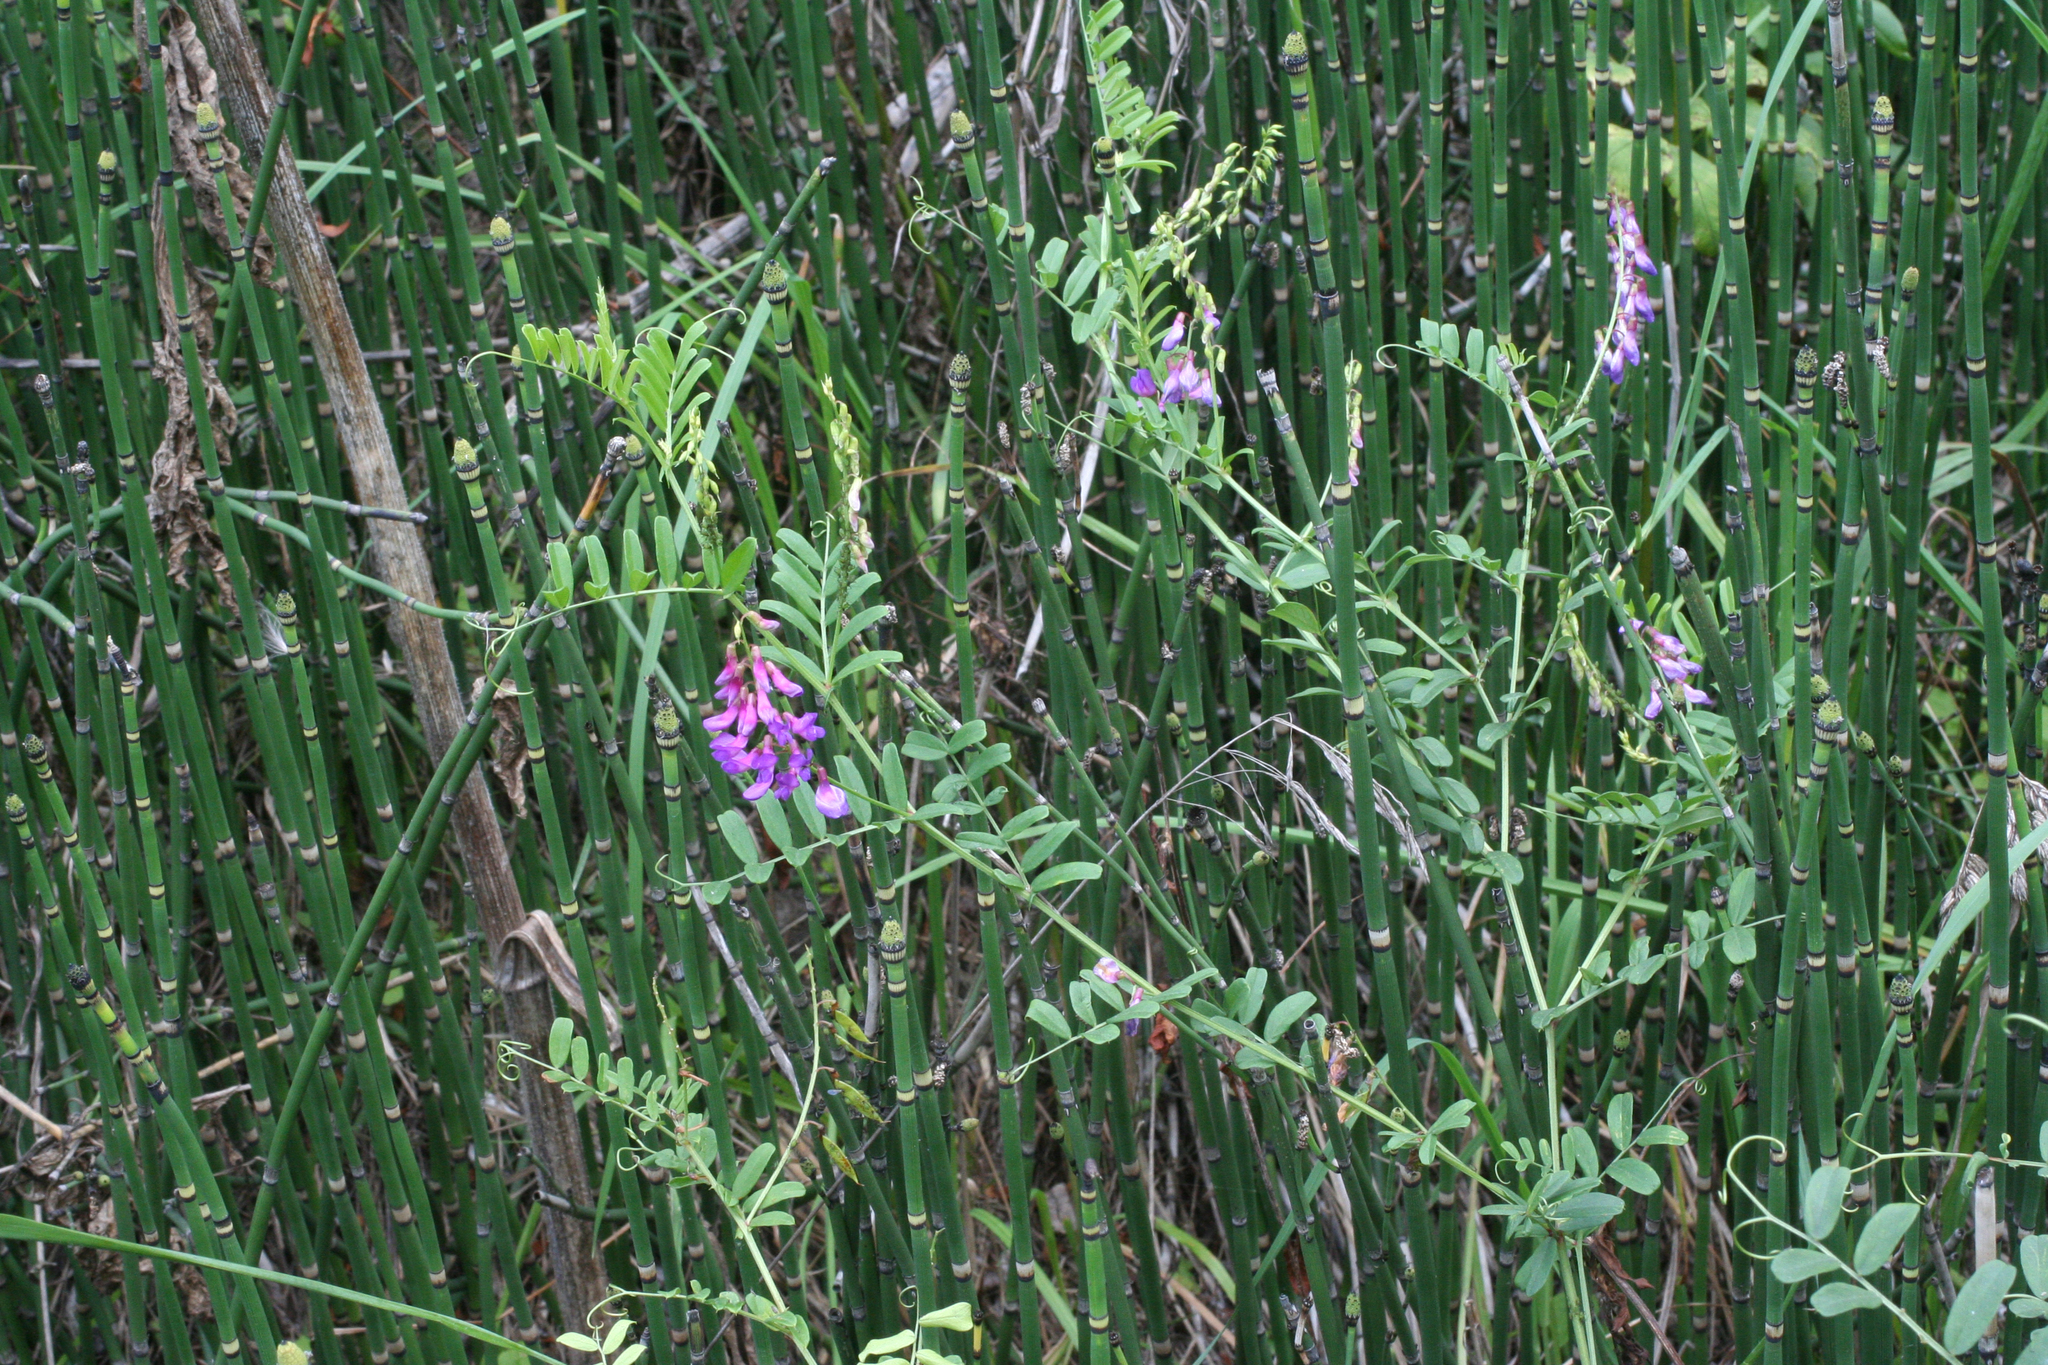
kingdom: Plantae
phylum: Tracheophyta
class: Magnoliopsida
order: Fabales
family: Fabaceae
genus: Vicia
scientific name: Vicia amoena
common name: Cheder ebs
